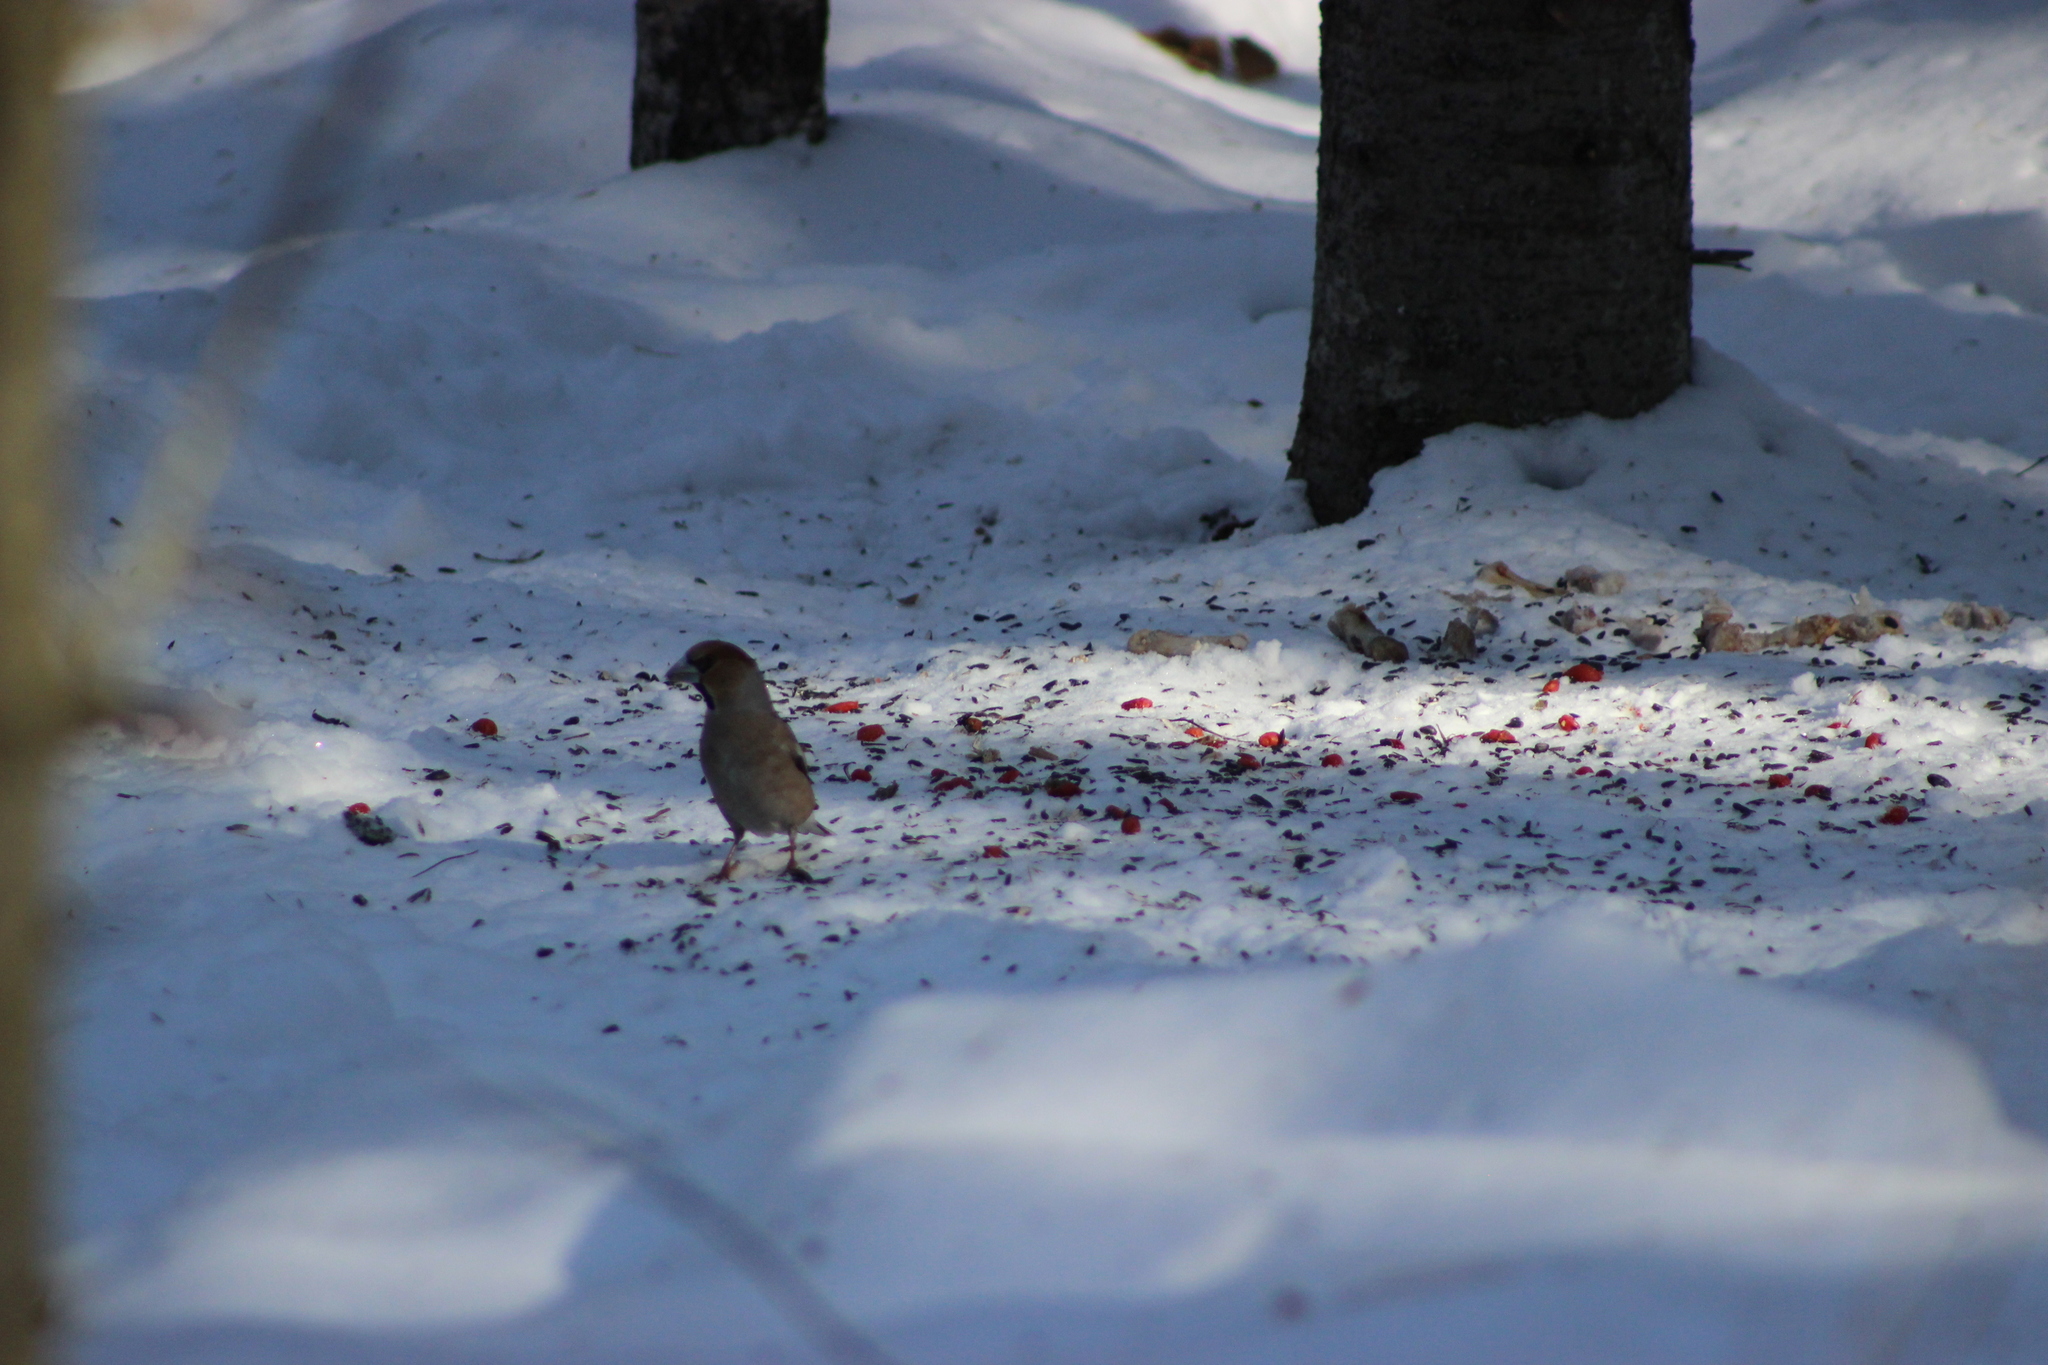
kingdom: Animalia
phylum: Chordata
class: Aves
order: Passeriformes
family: Fringillidae
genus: Coccothraustes
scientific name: Coccothraustes coccothraustes
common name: Hawfinch
